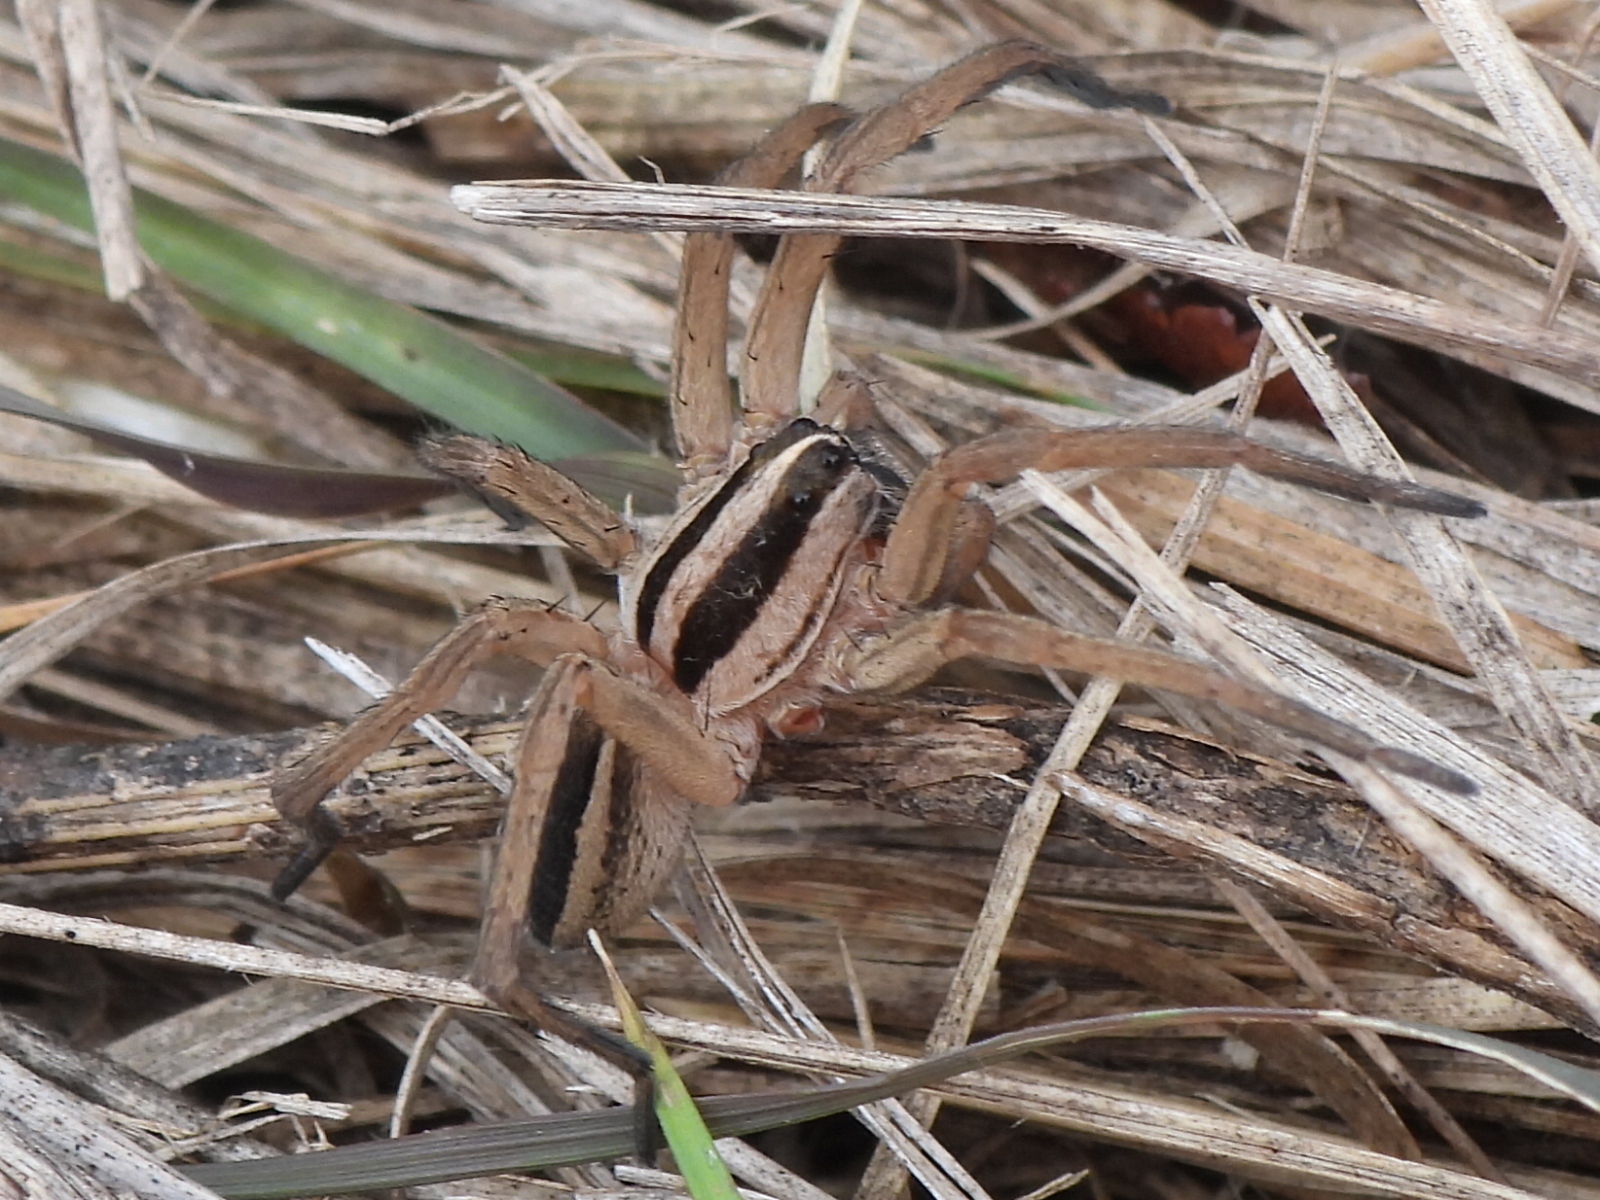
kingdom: Animalia
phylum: Arthropoda
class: Arachnida
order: Araneae
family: Lycosidae
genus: Rabidosa
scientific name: Rabidosa punctulata
